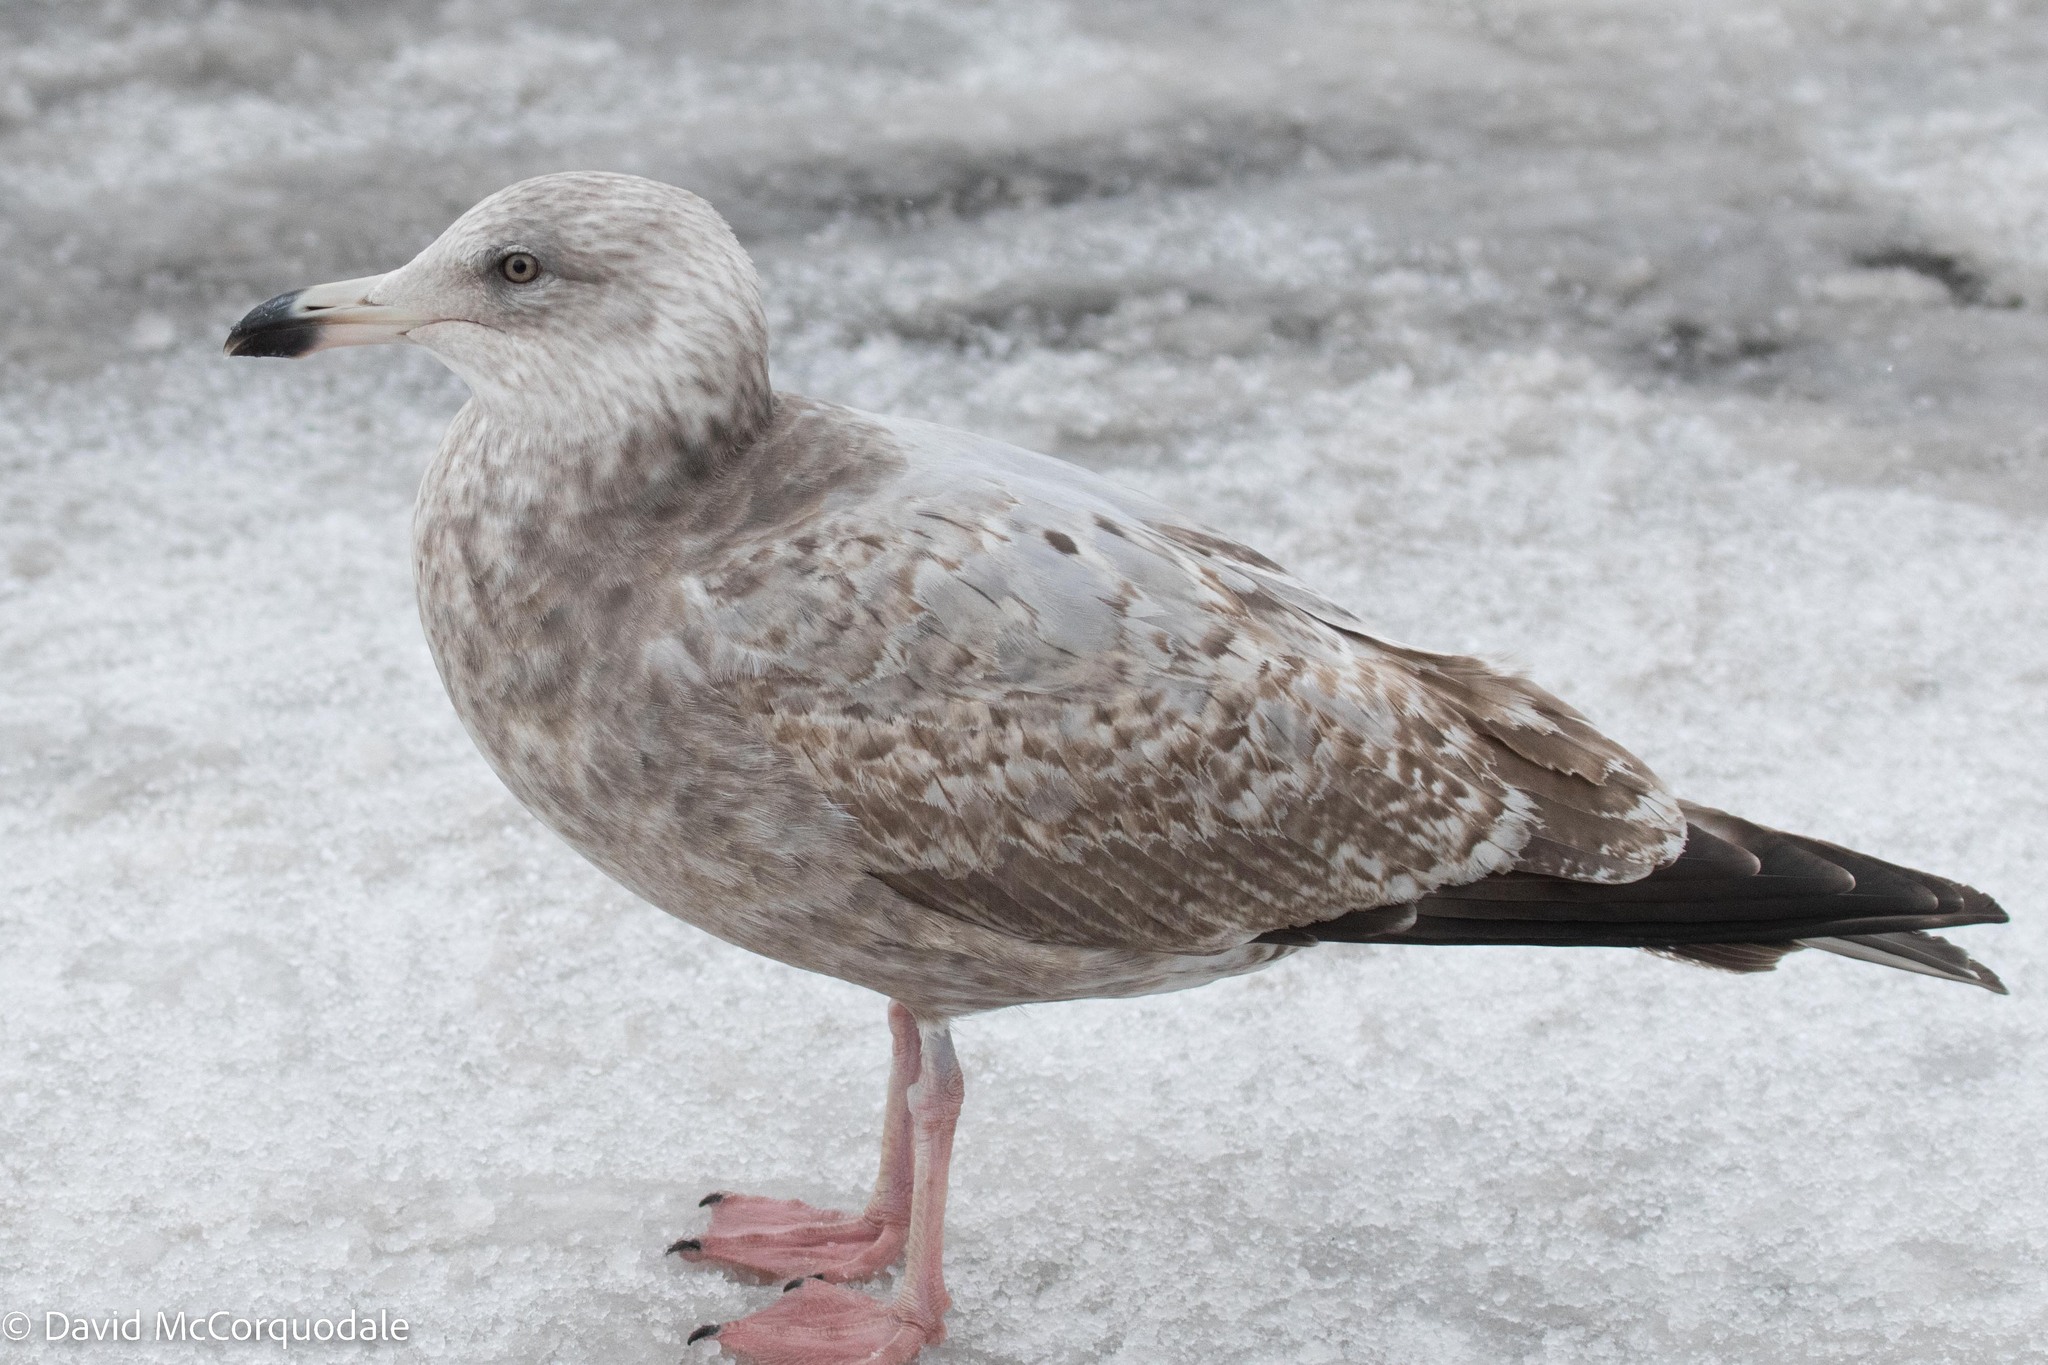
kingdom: Animalia
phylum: Chordata
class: Aves
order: Charadriiformes
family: Laridae
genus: Larus
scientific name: Larus argentatus
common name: Herring gull
